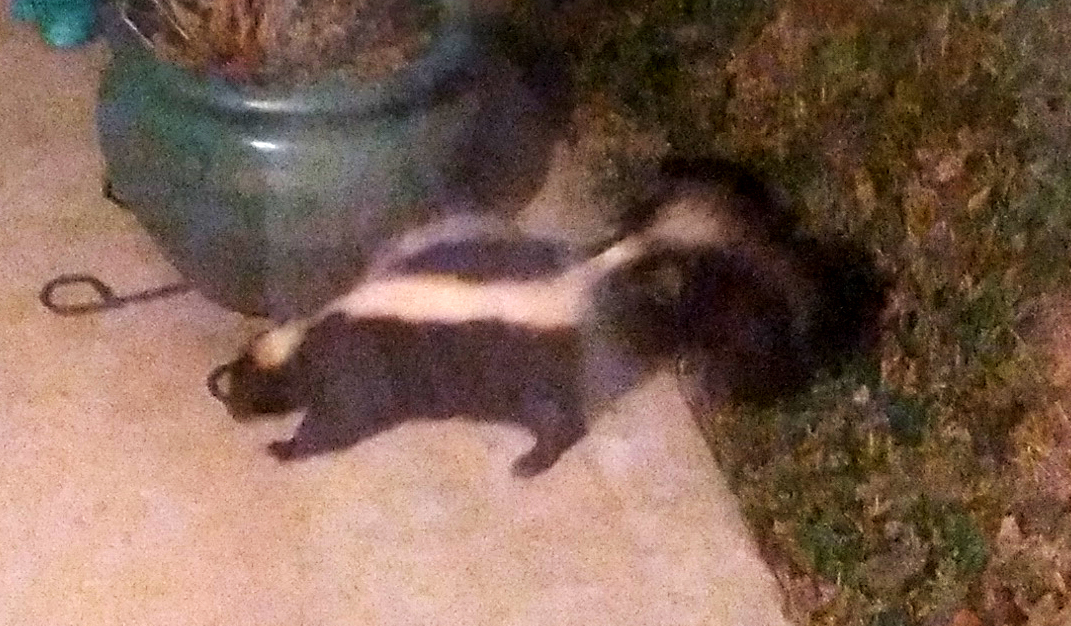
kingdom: Animalia
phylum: Chordata
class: Mammalia
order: Carnivora
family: Mephitidae
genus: Mephitis
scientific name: Mephitis mephitis
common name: Striped skunk
